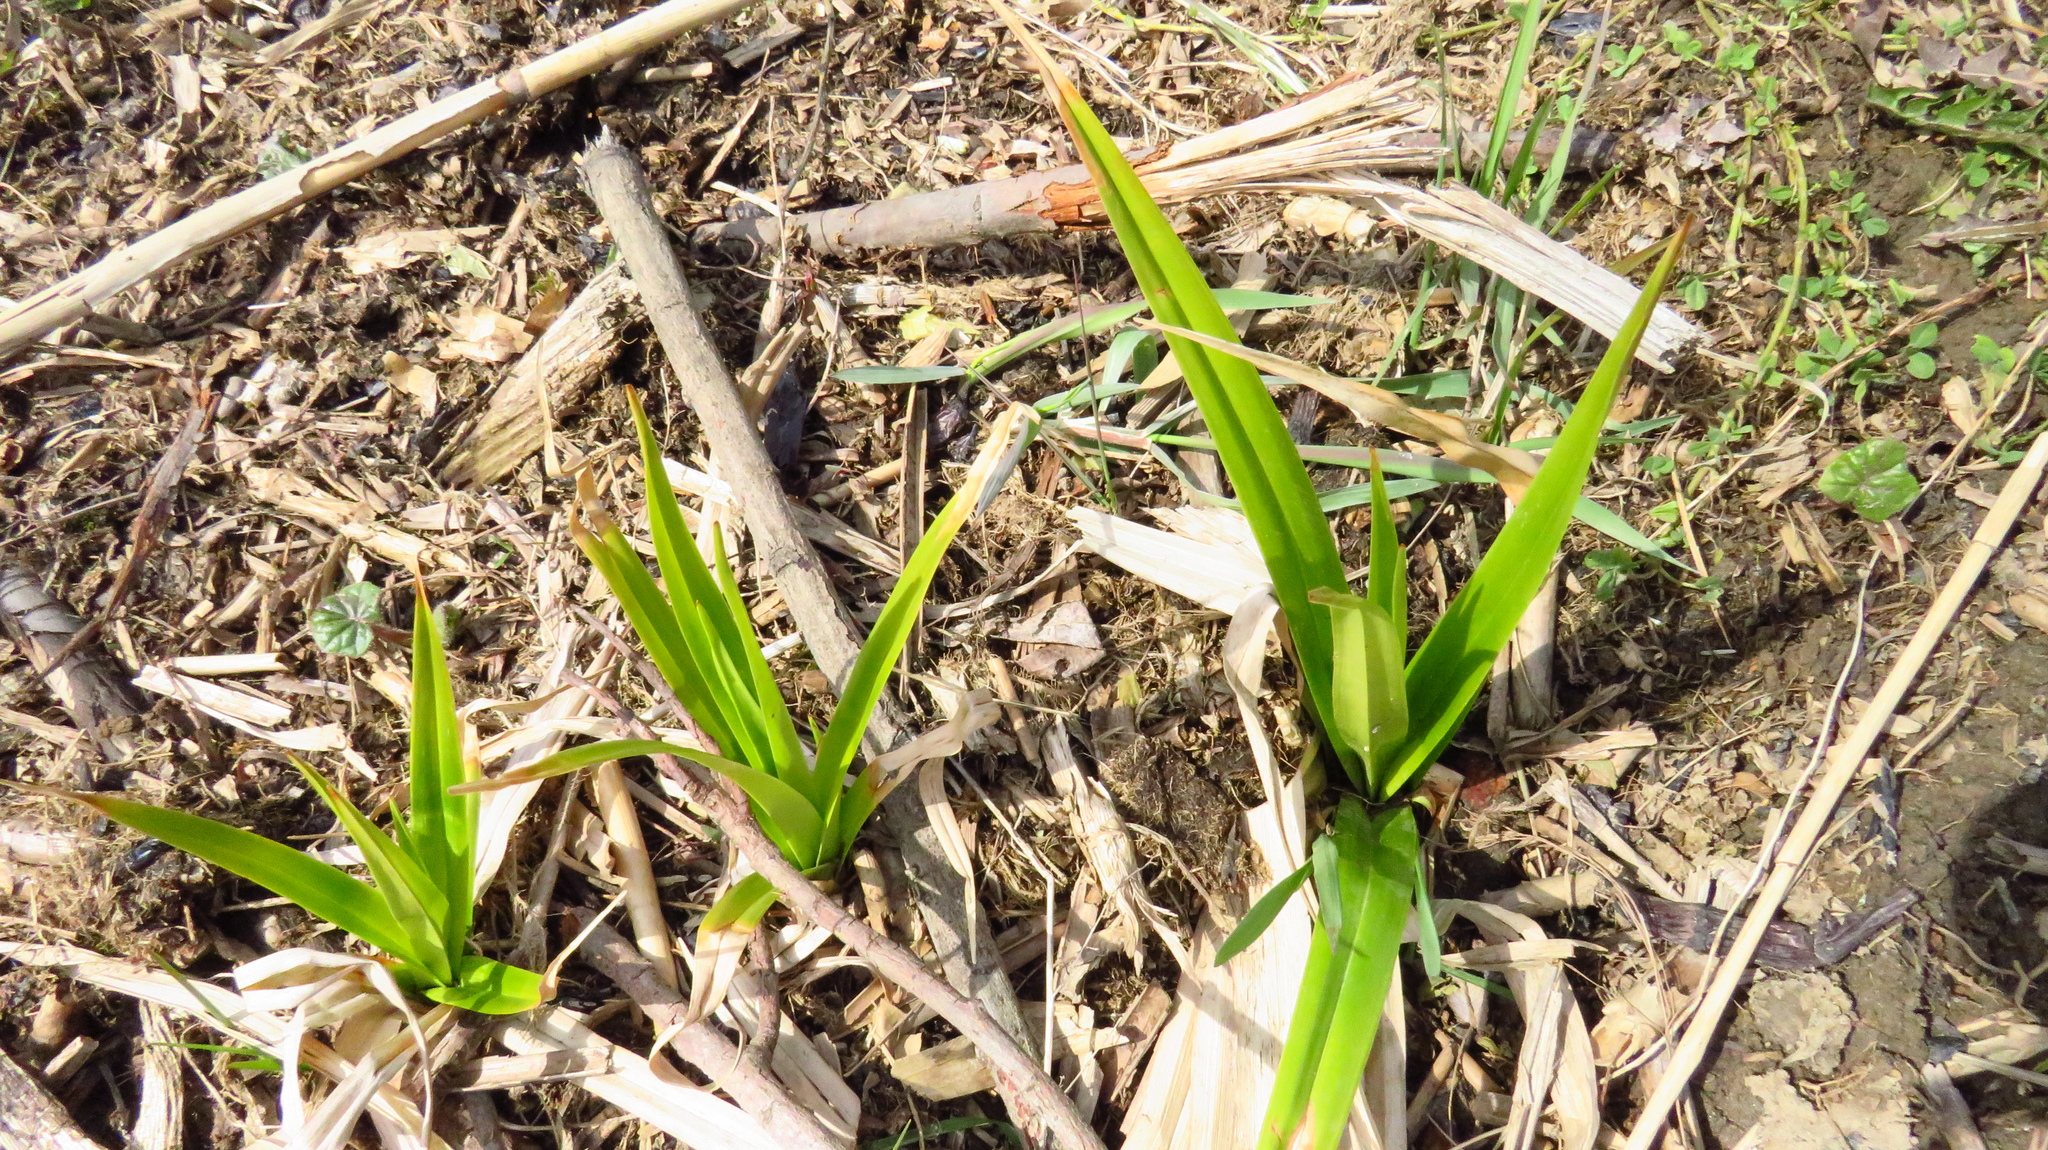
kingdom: Plantae
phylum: Tracheophyta
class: Liliopsida
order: Poales
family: Cyperaceae
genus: Scirpus
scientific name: Scirpus sylvaticus
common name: Wood club-rush
